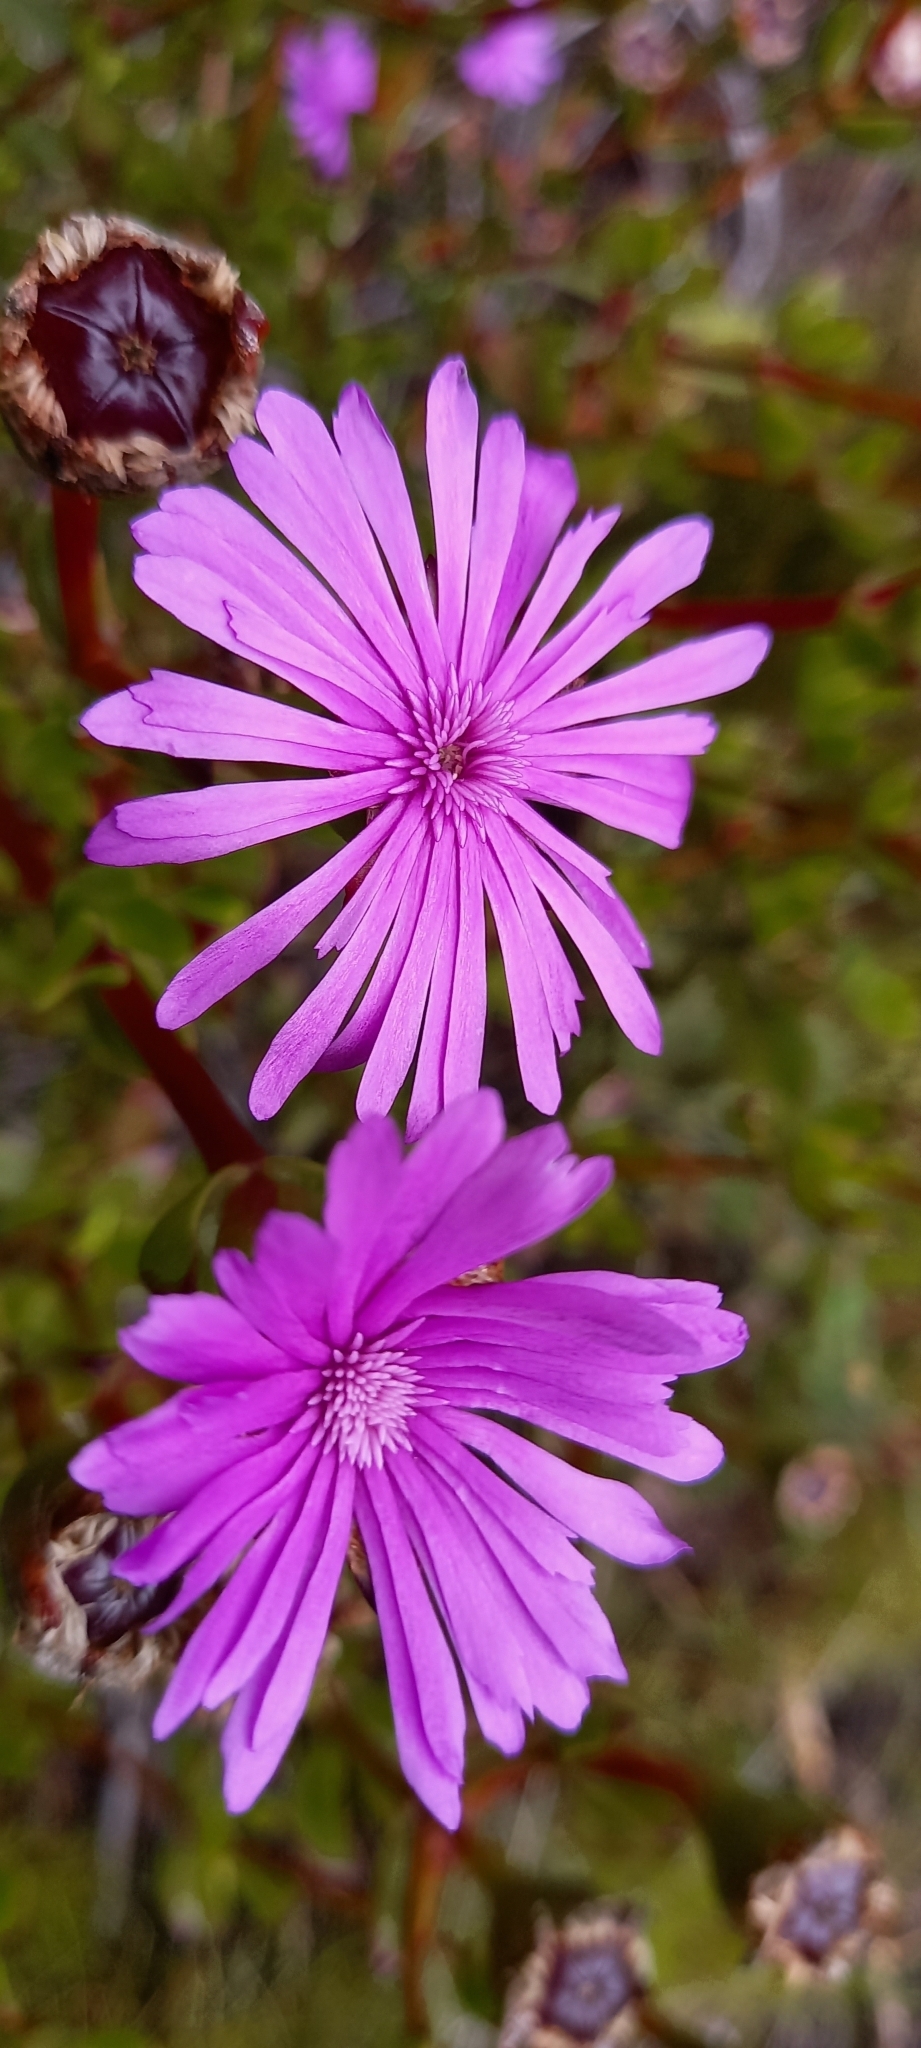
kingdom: Plantae
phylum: Tracheophyta
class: Magnoliopsida
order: Caryophyllales
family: Aizoaceae
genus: Erepsia
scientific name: Erepsia inclaudens
